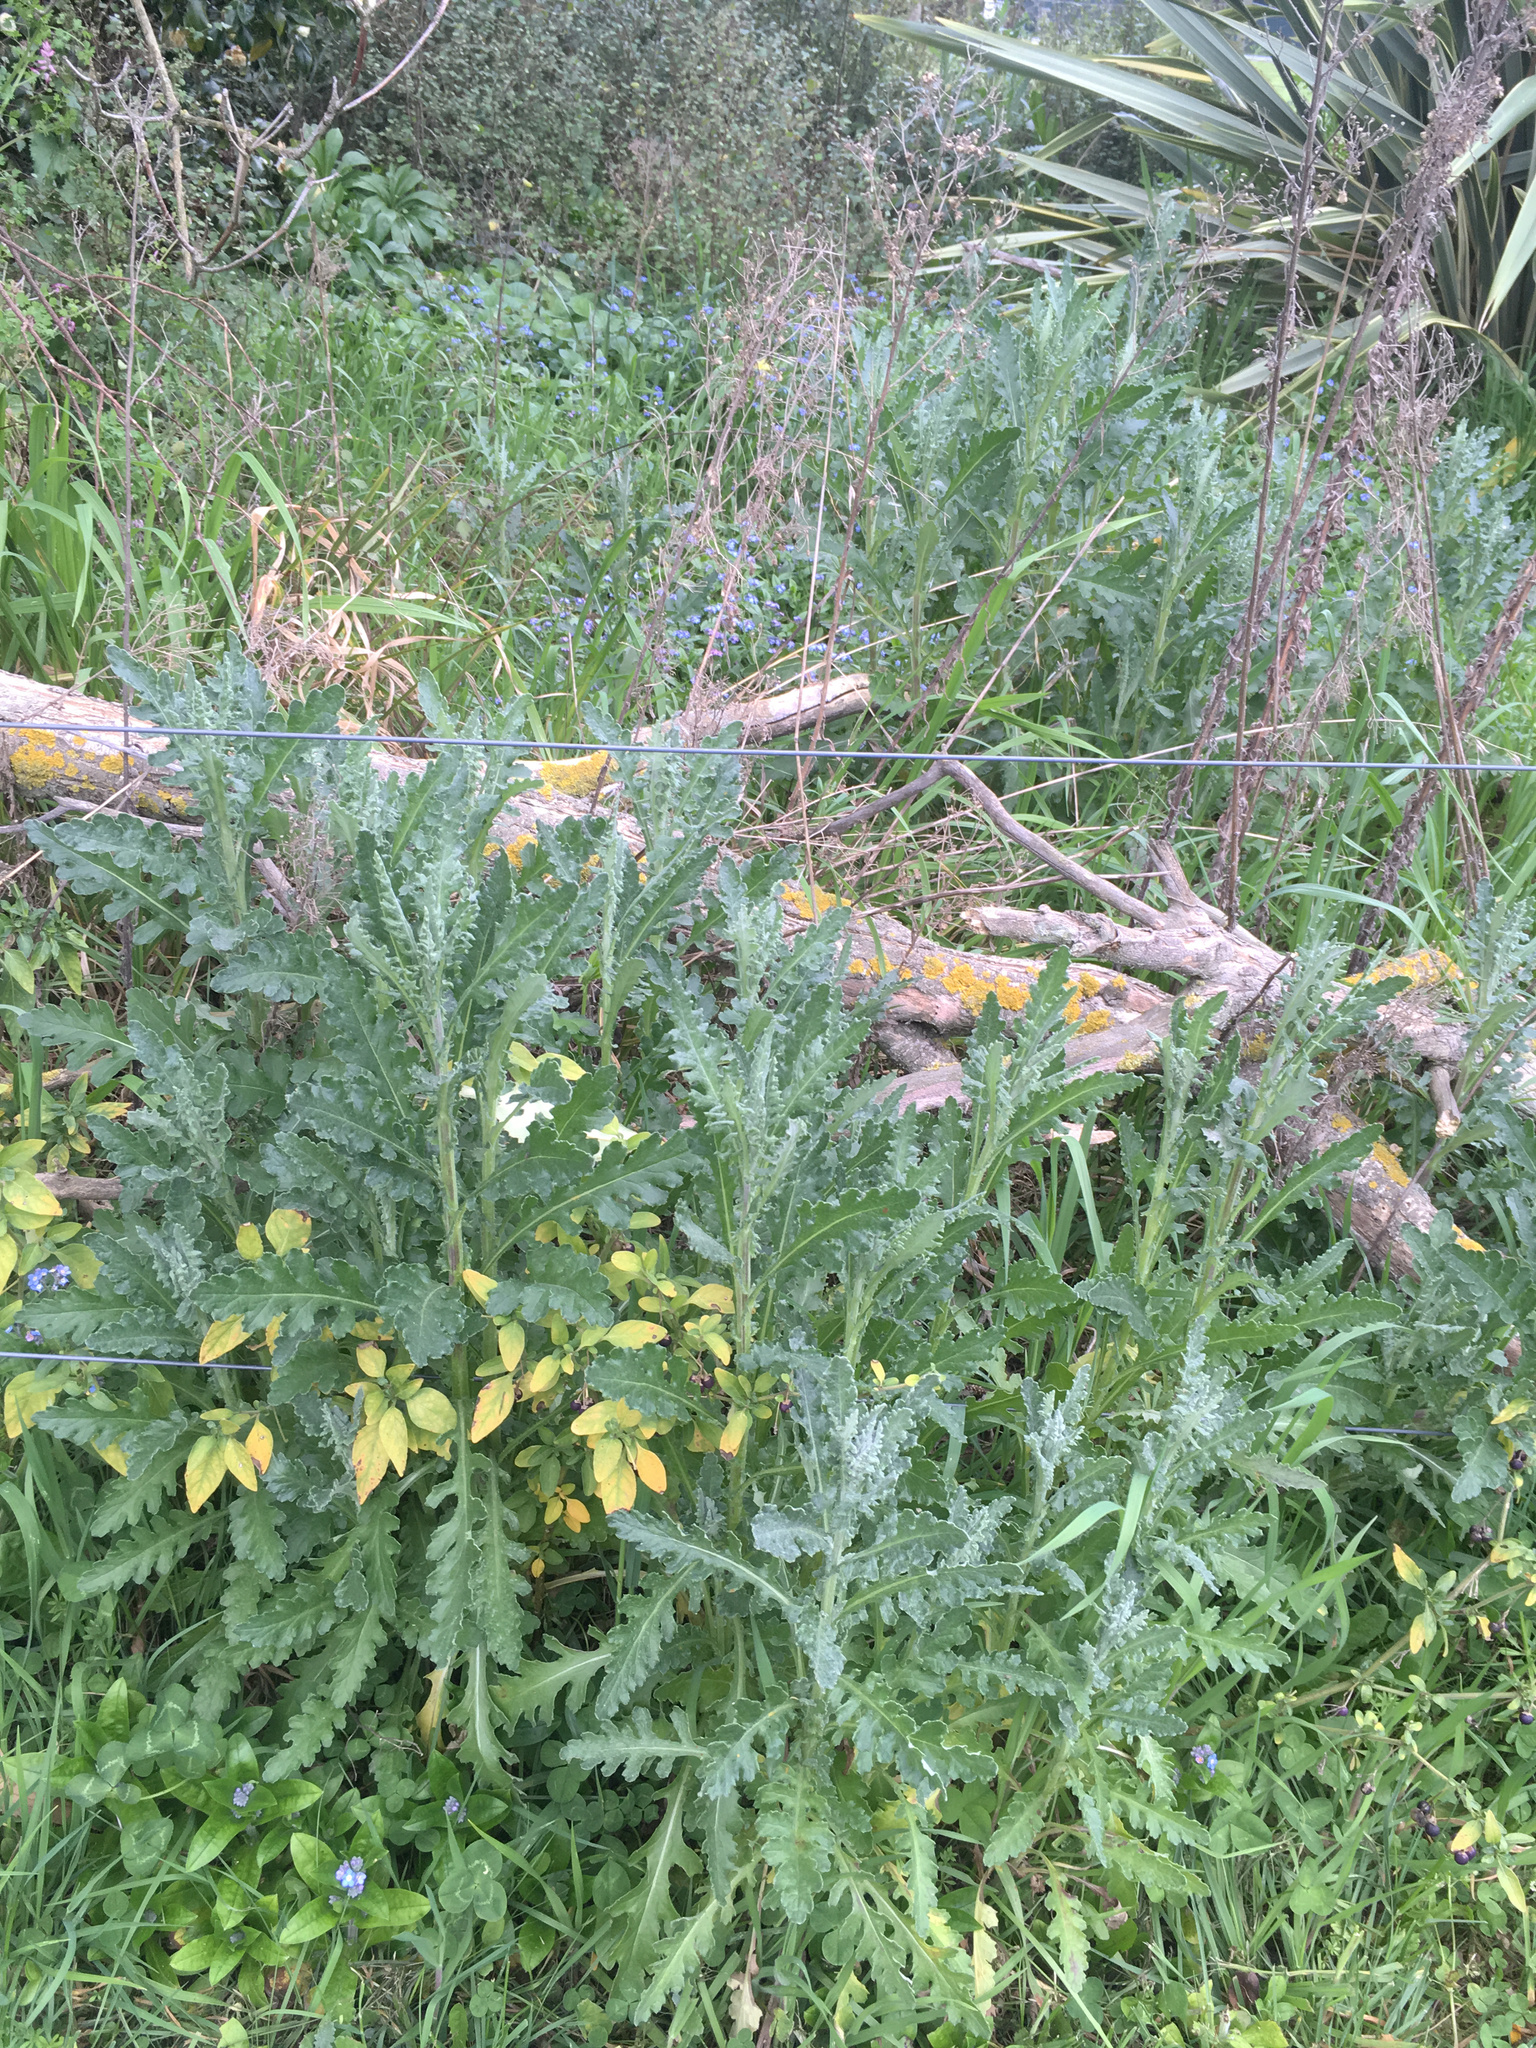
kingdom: Plantae
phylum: Tracheophyta
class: Magnoliopsida
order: Asterales
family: Asteraceae
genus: Senecio
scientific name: Senecio glomeratus
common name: Cutleaf burnweed
